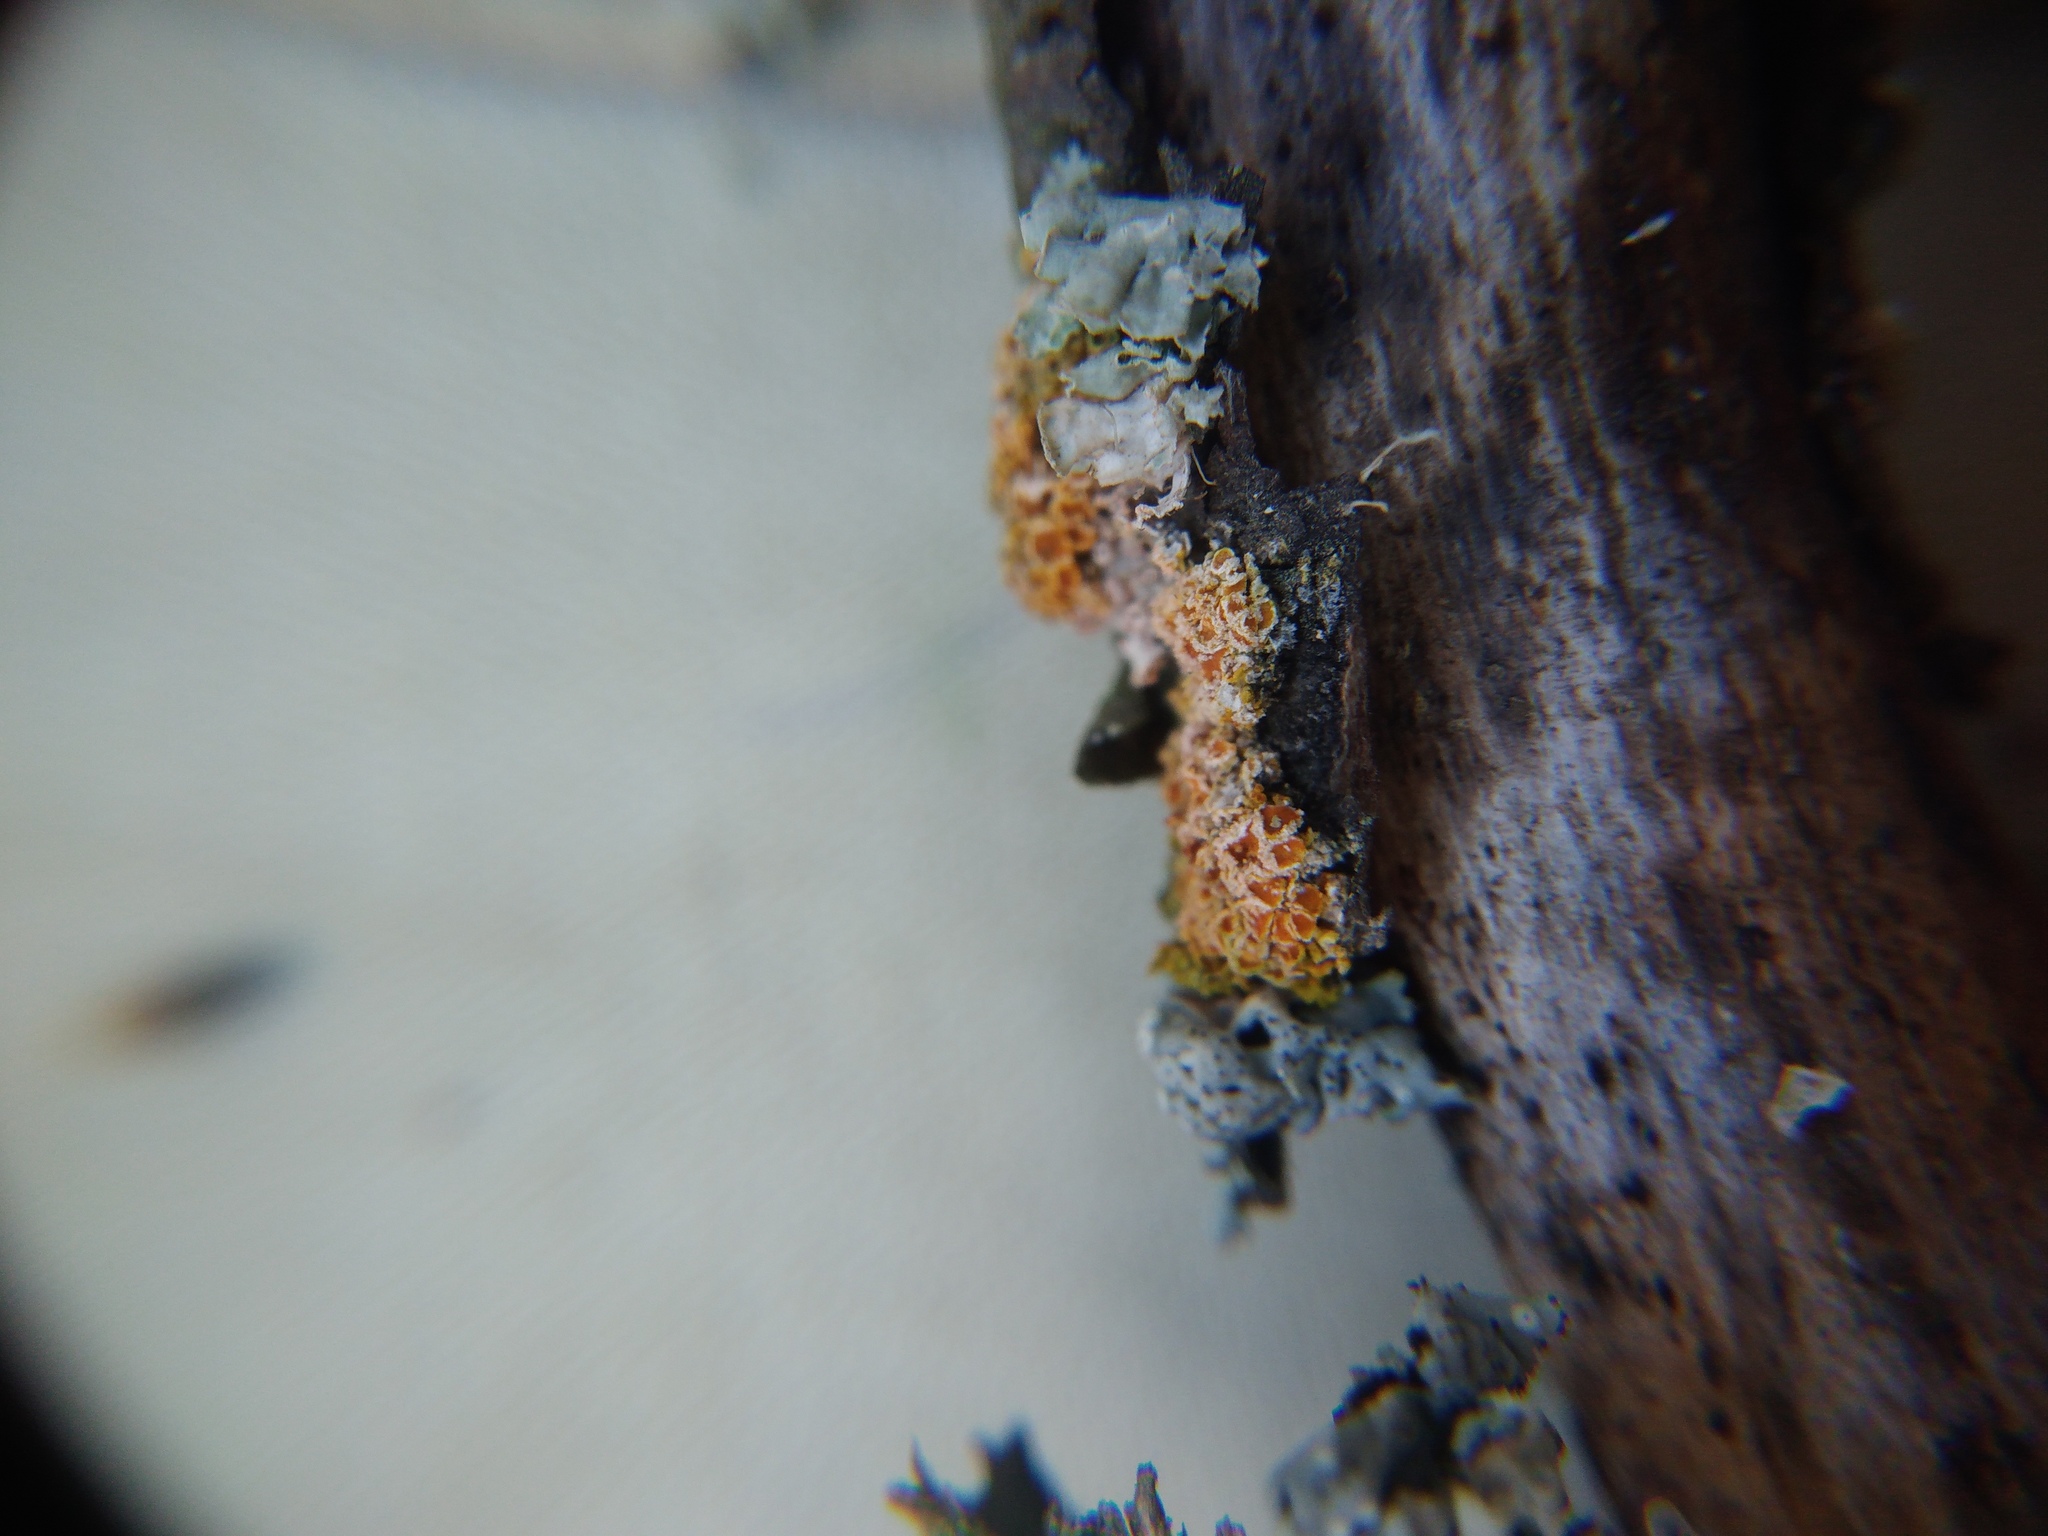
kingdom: Fungi
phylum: Basidiomycota
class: Agaricomycetes
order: Corticiales
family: Corticiaceae
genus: Erythricium
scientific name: Erythricium aurantiacum
